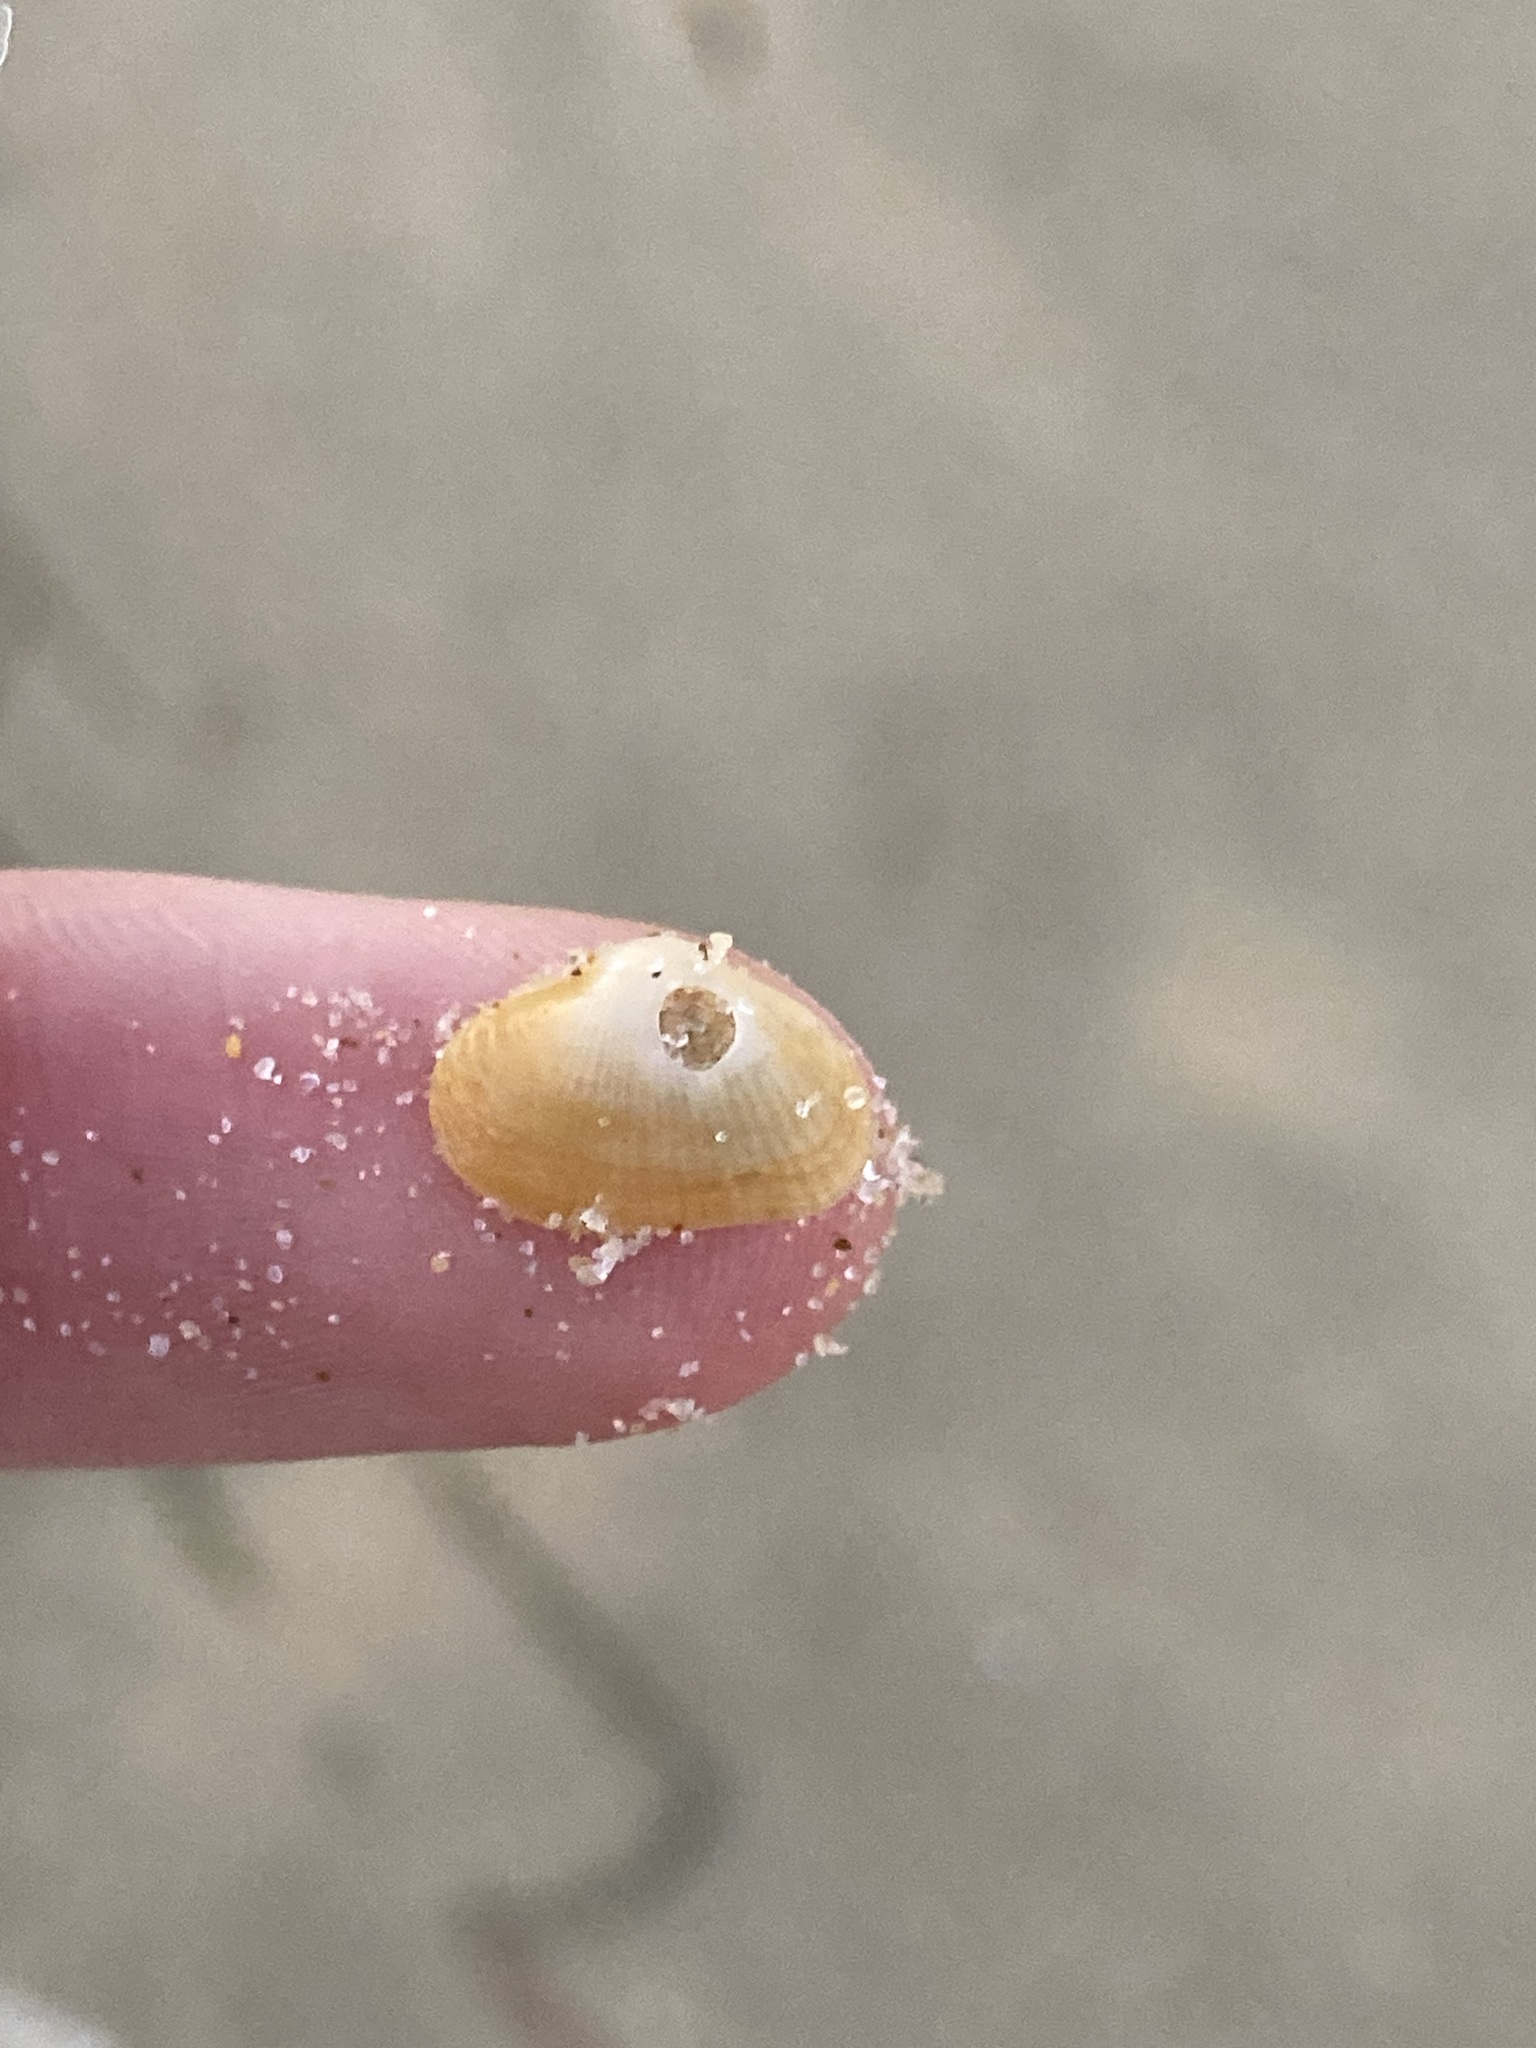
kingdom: Animalia
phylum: Mollusca
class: Bivalvia
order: Venerida
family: Hemidonacidae
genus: Hemidonax
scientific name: Hemidonax dactylus
